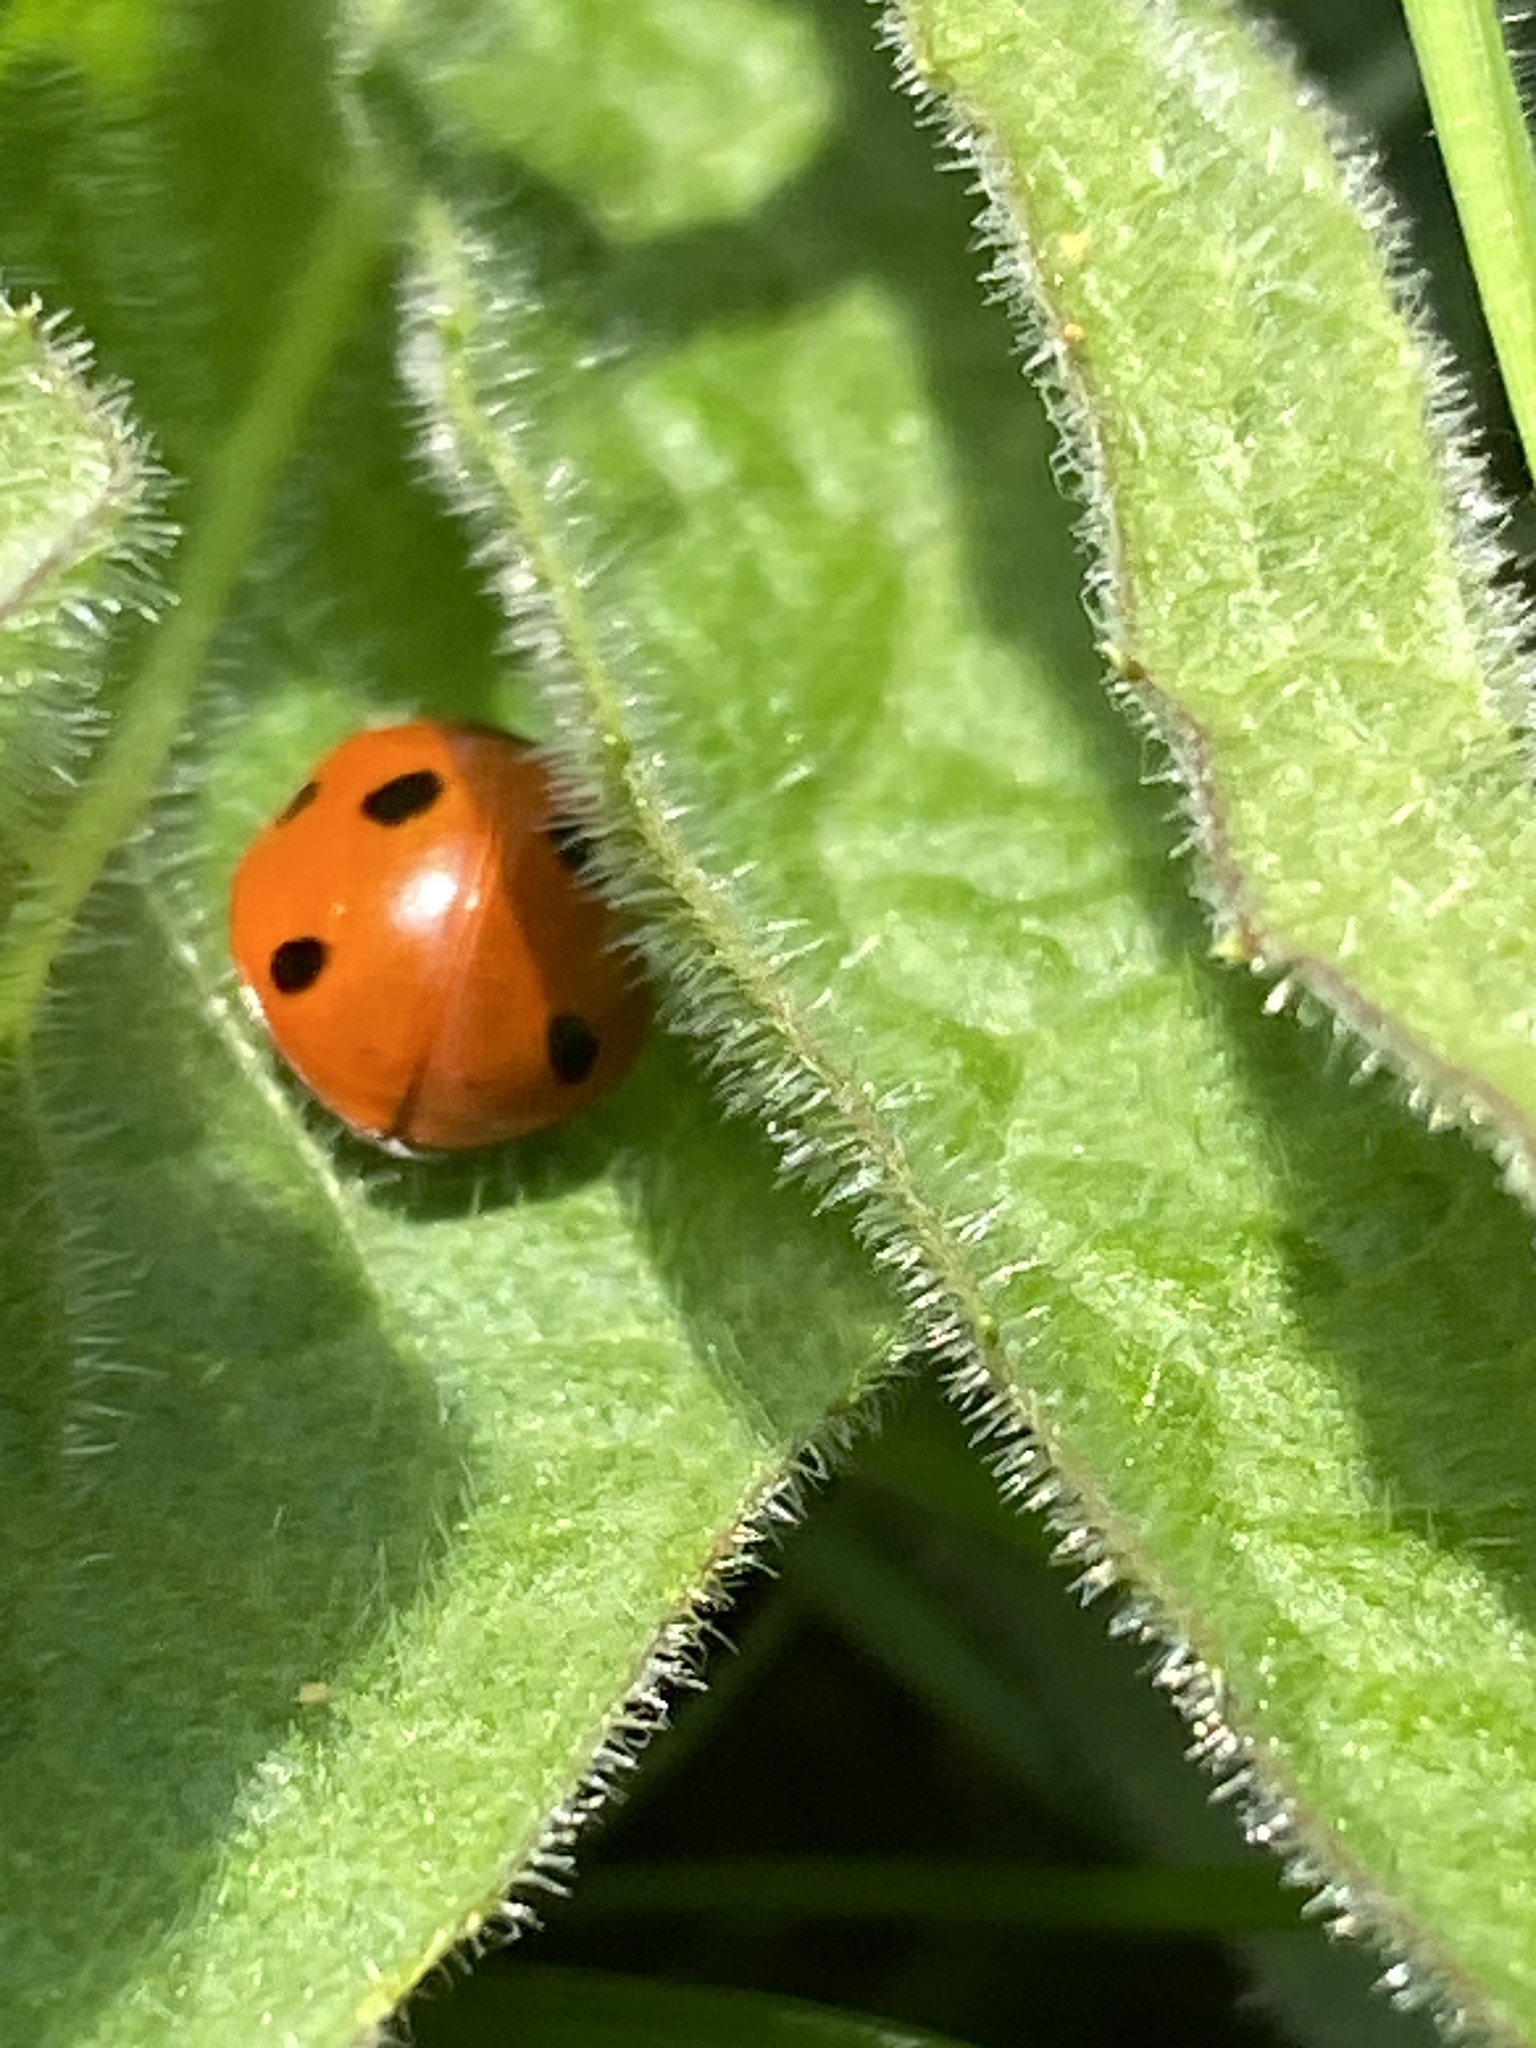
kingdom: Animalia
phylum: Arthropoda
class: Insecta
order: Coleoptera
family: Coccinellidae
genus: Coccinella
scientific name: Coccinella septempunctata
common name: Sevenspotted lady beetle
